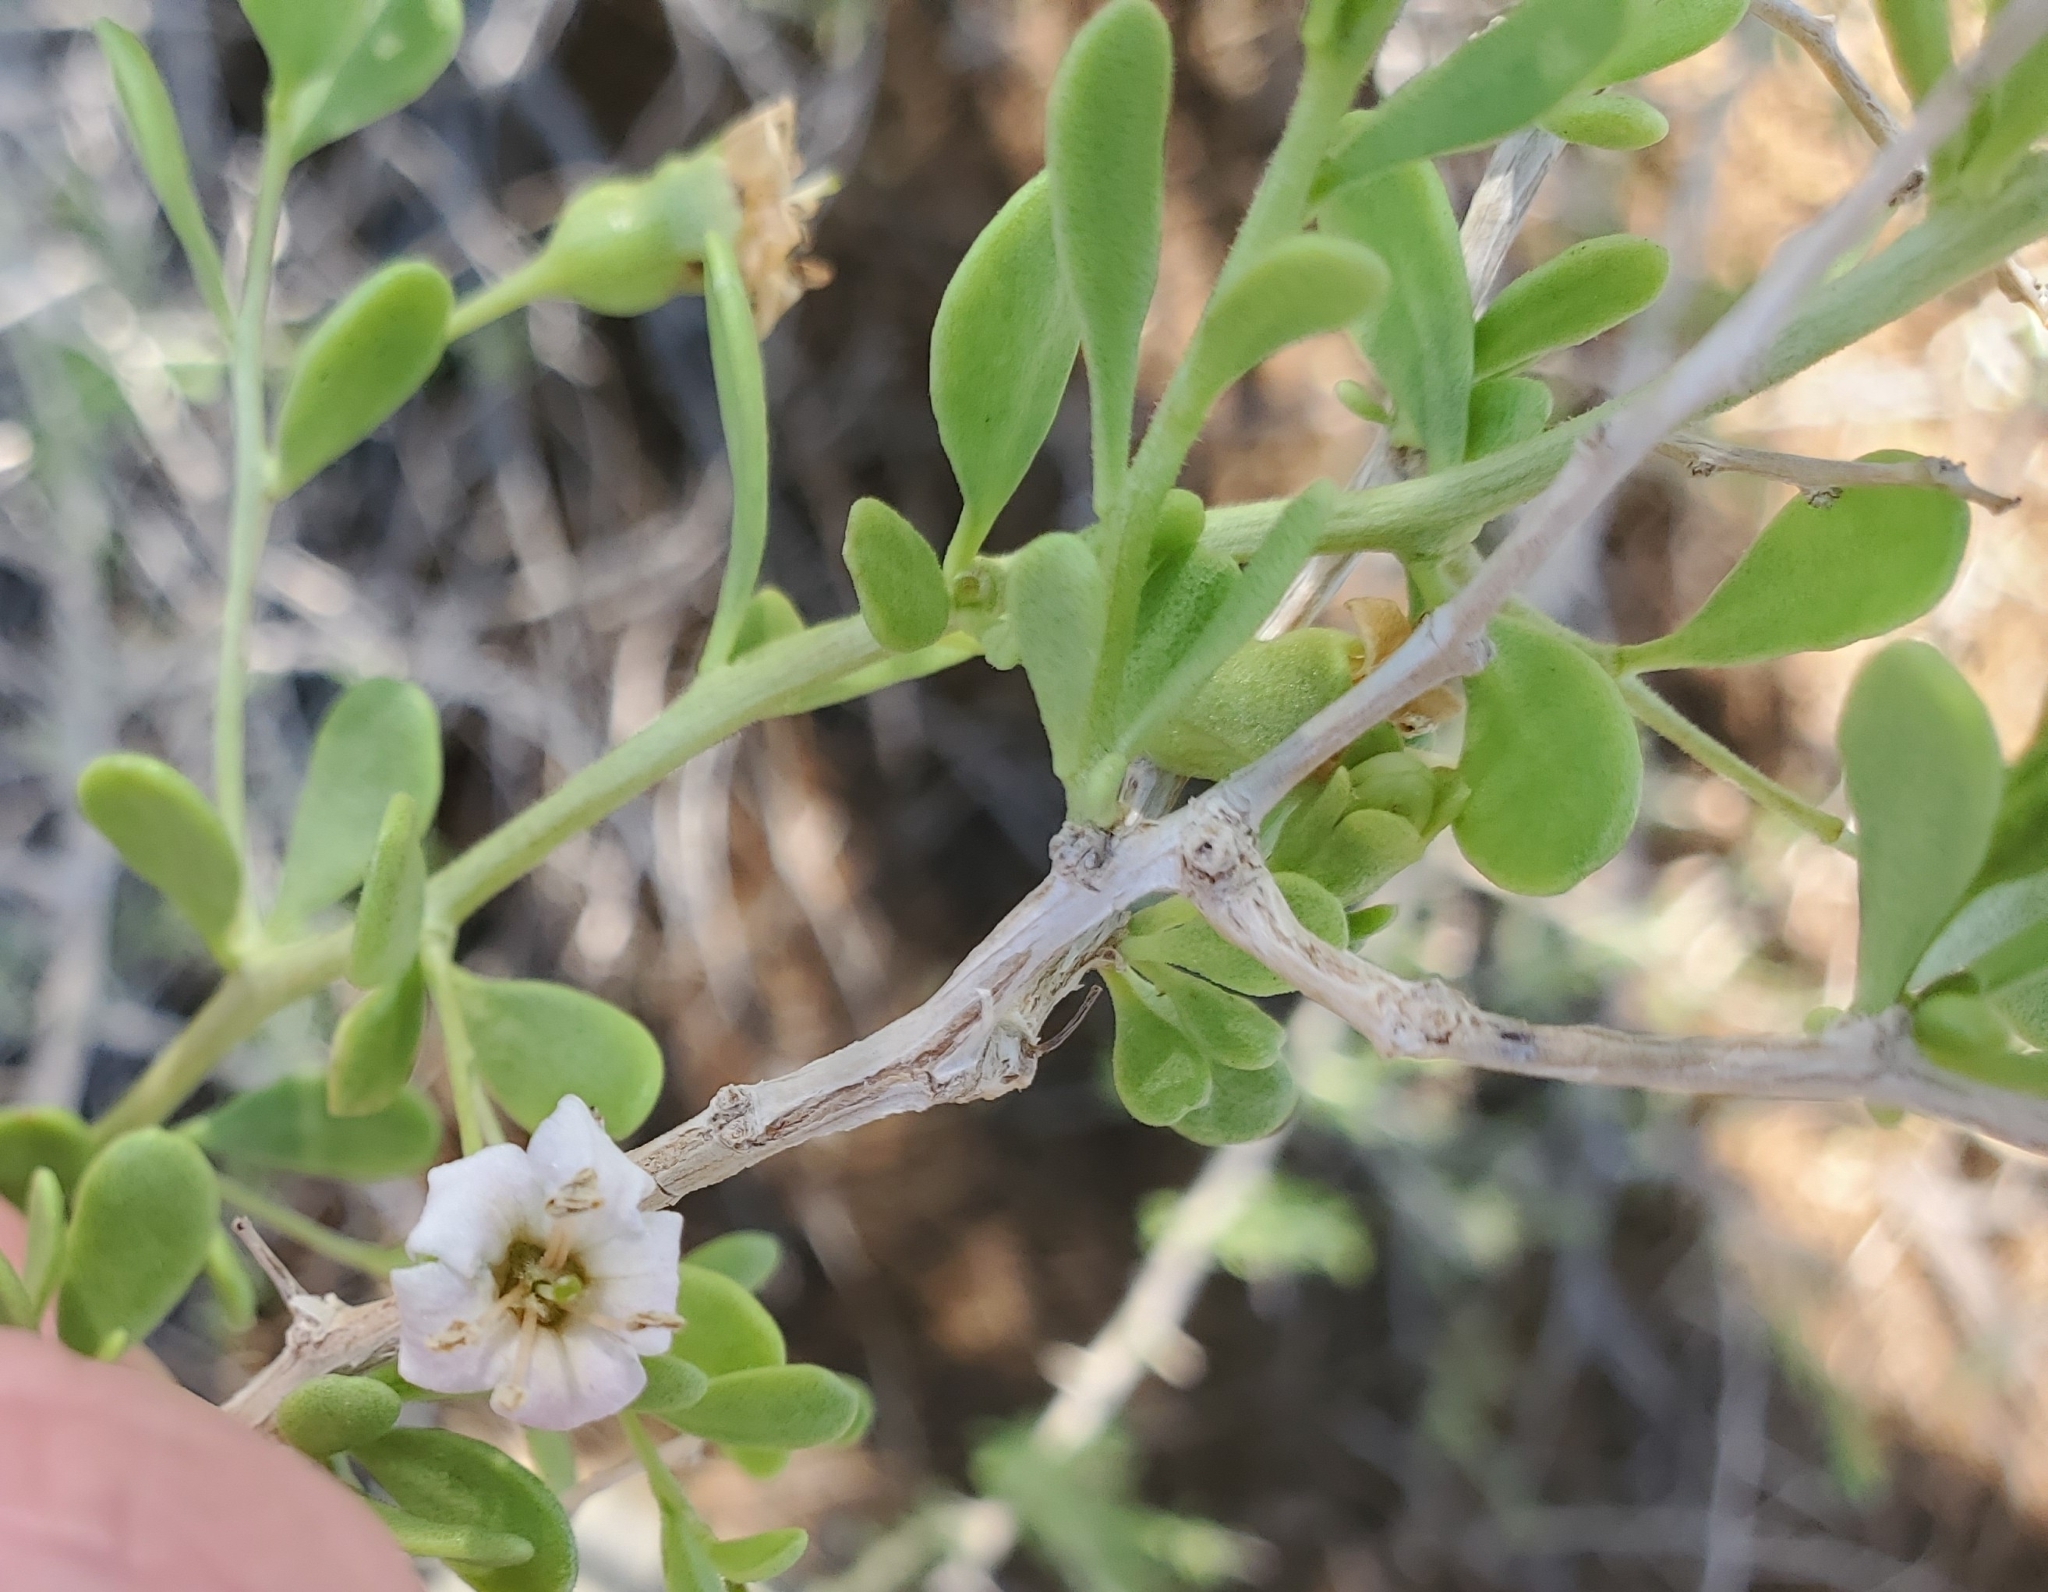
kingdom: Plantae
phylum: Tracheophyta
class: Magnoliopsida
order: Solanales
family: Solanaceae
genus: Lycium
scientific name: Lycium brevipes
